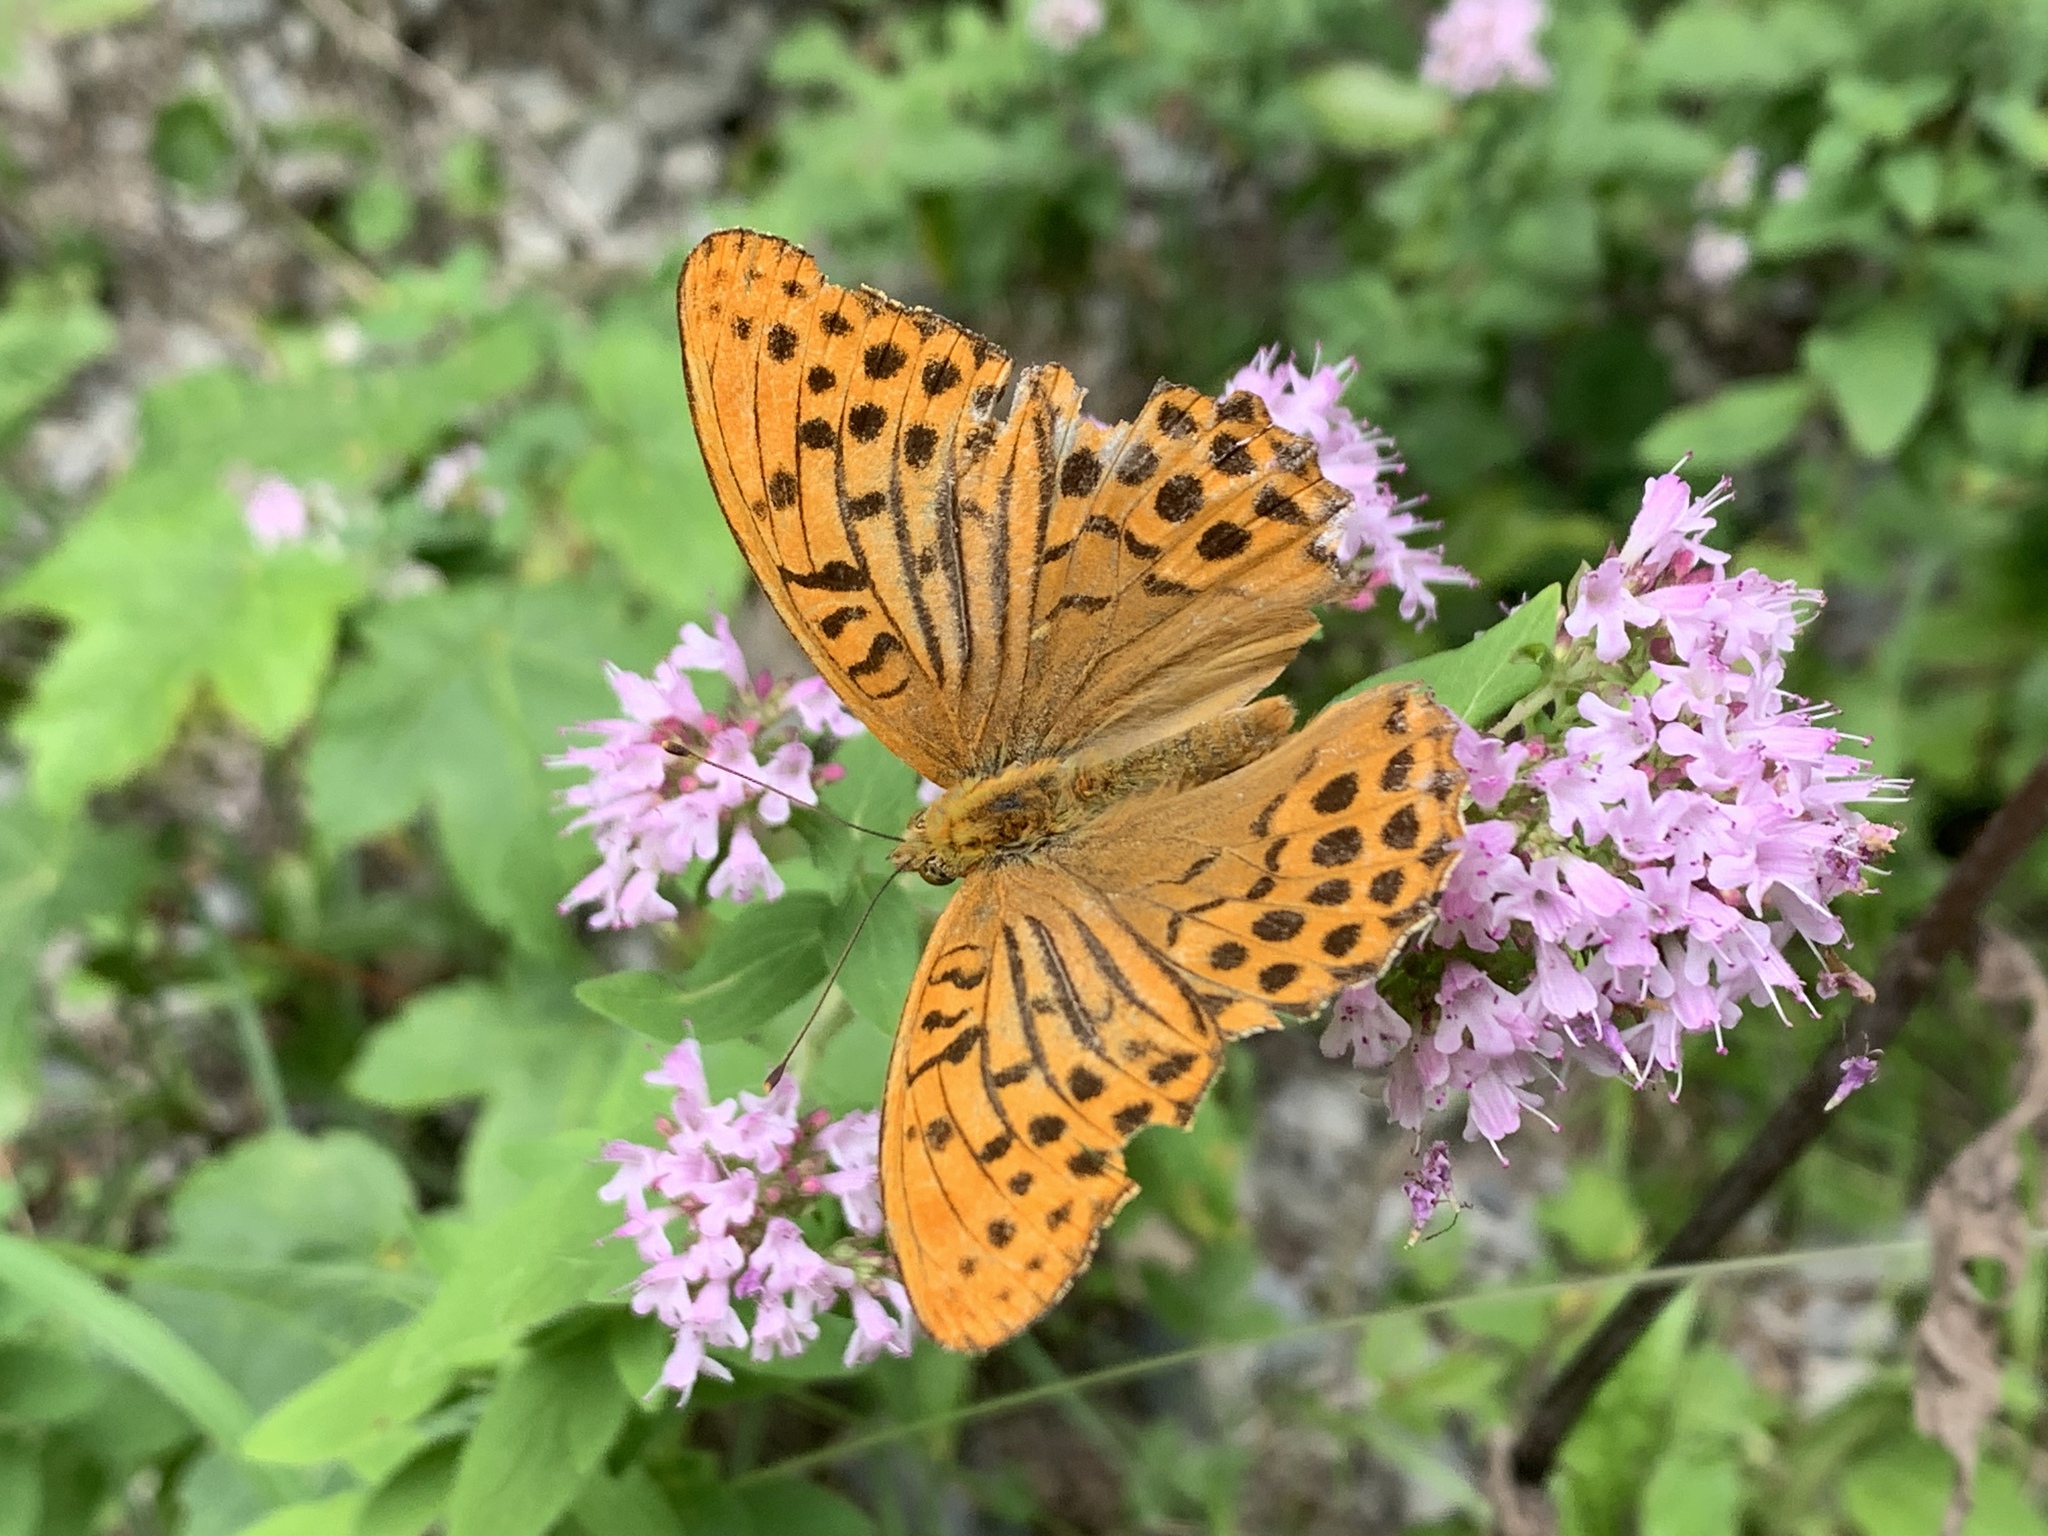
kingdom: Animalia
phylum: Arthropoda
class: Insecta
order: Lepidoptera
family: Nymphalidae
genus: Argynnis
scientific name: Argynnis paphia
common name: Silver-washed fritillary
